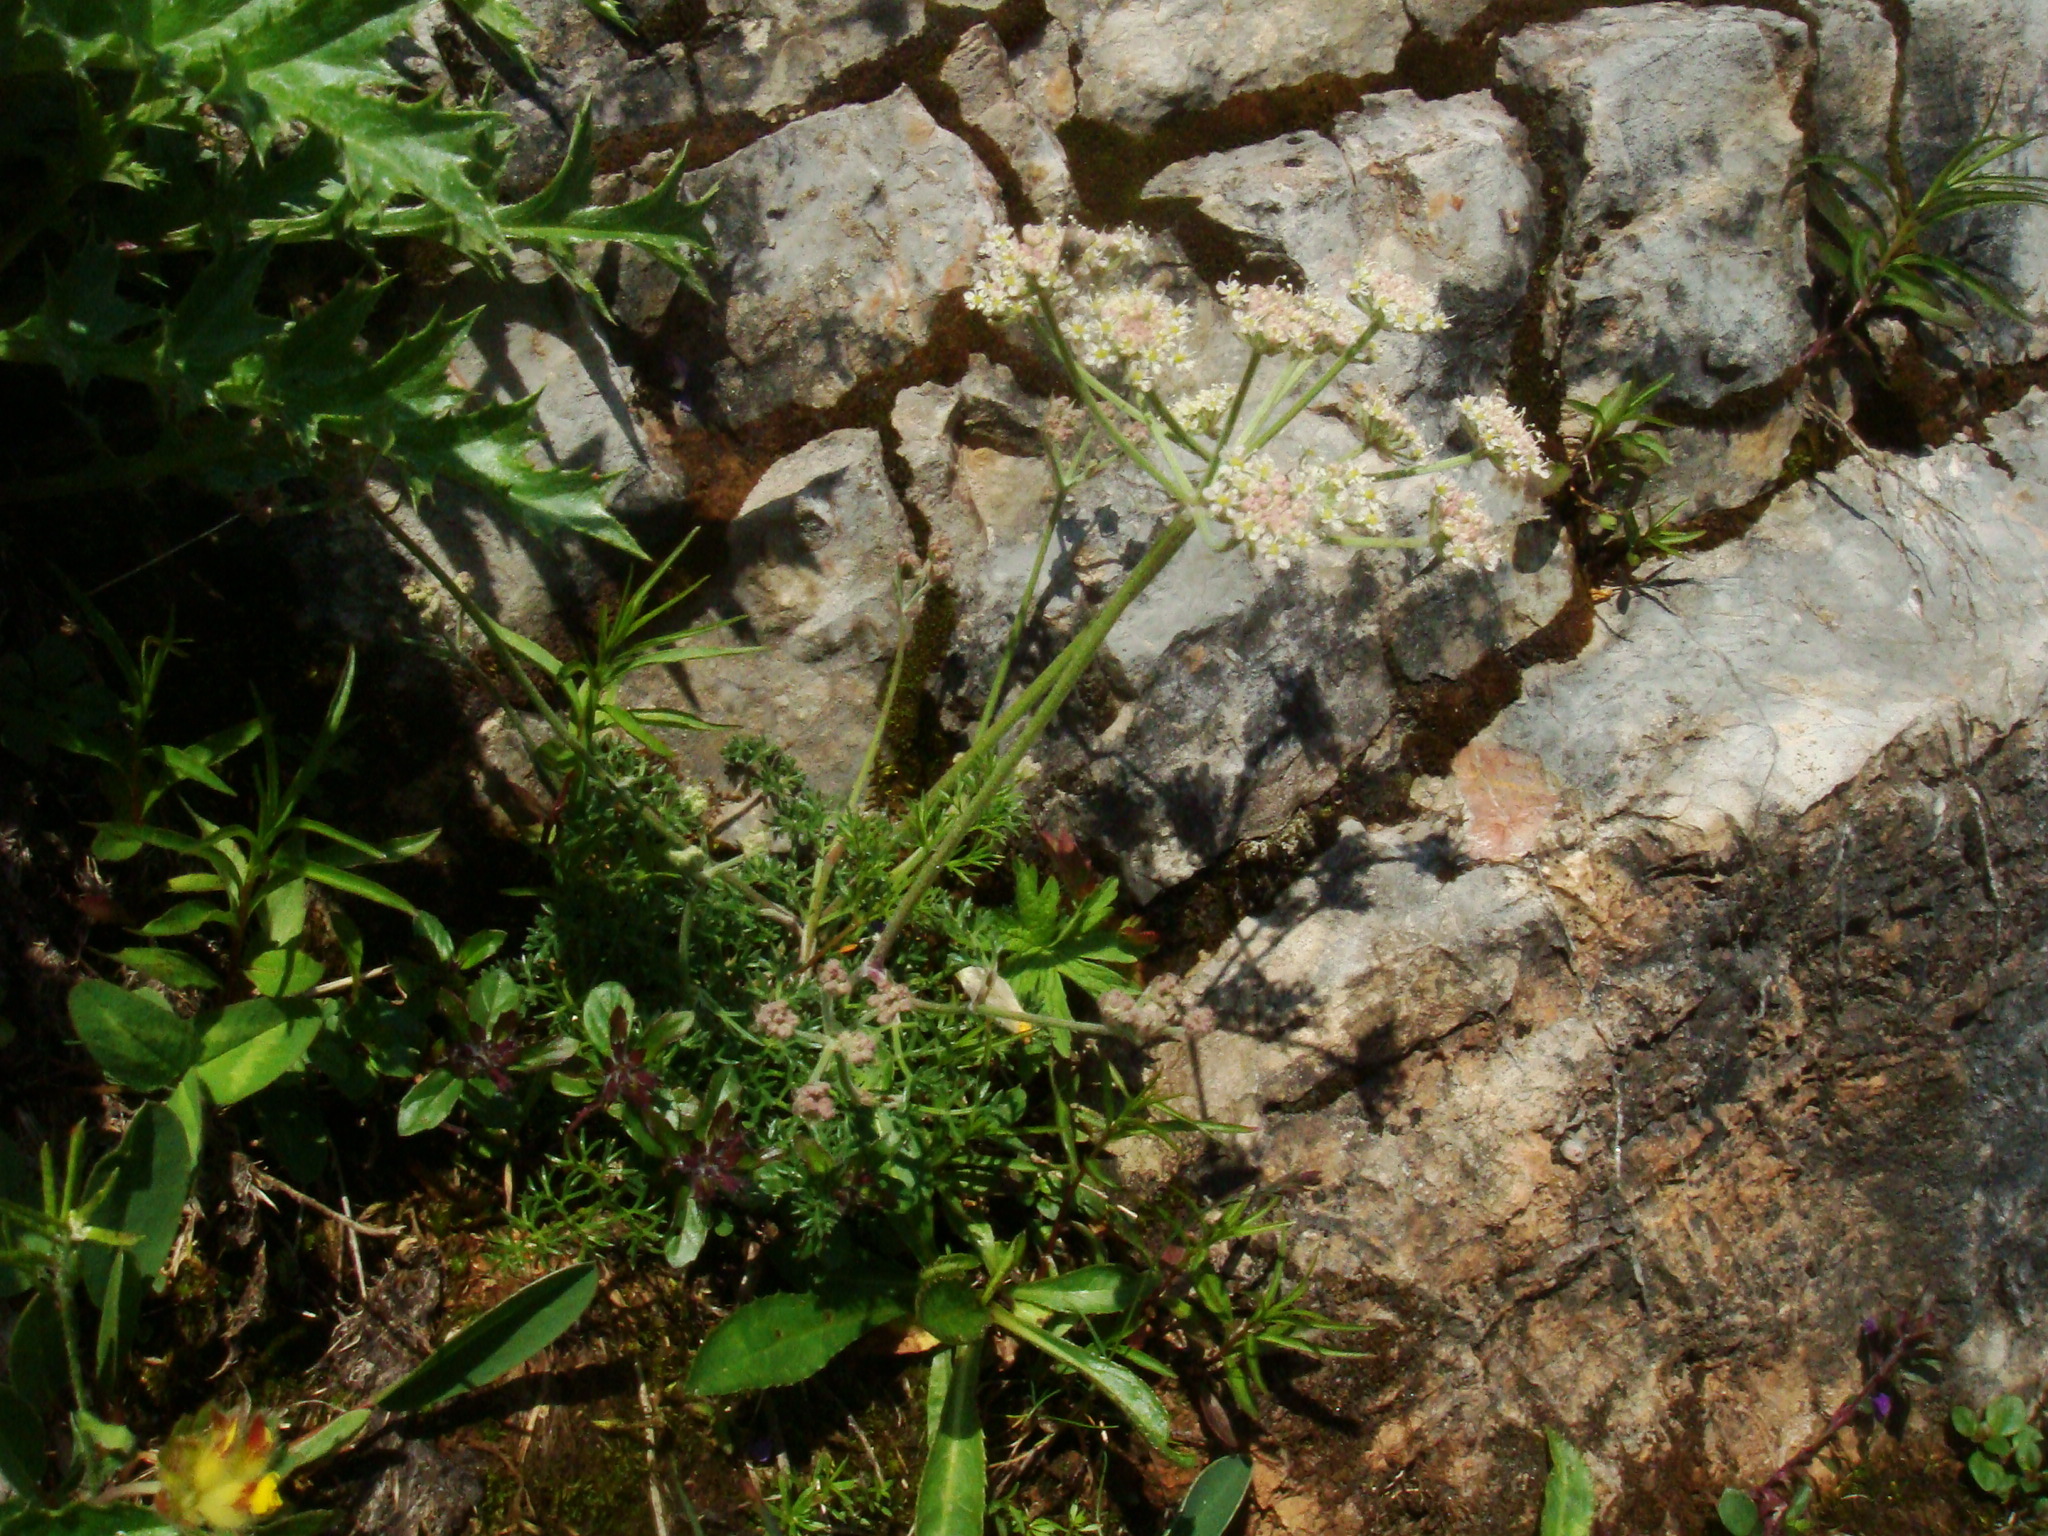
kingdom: Plantae
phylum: Tracheophyta
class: Magnoliopsida
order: Apiales
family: Apiaceae
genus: Athamanta
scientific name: Athamanta cretensis
